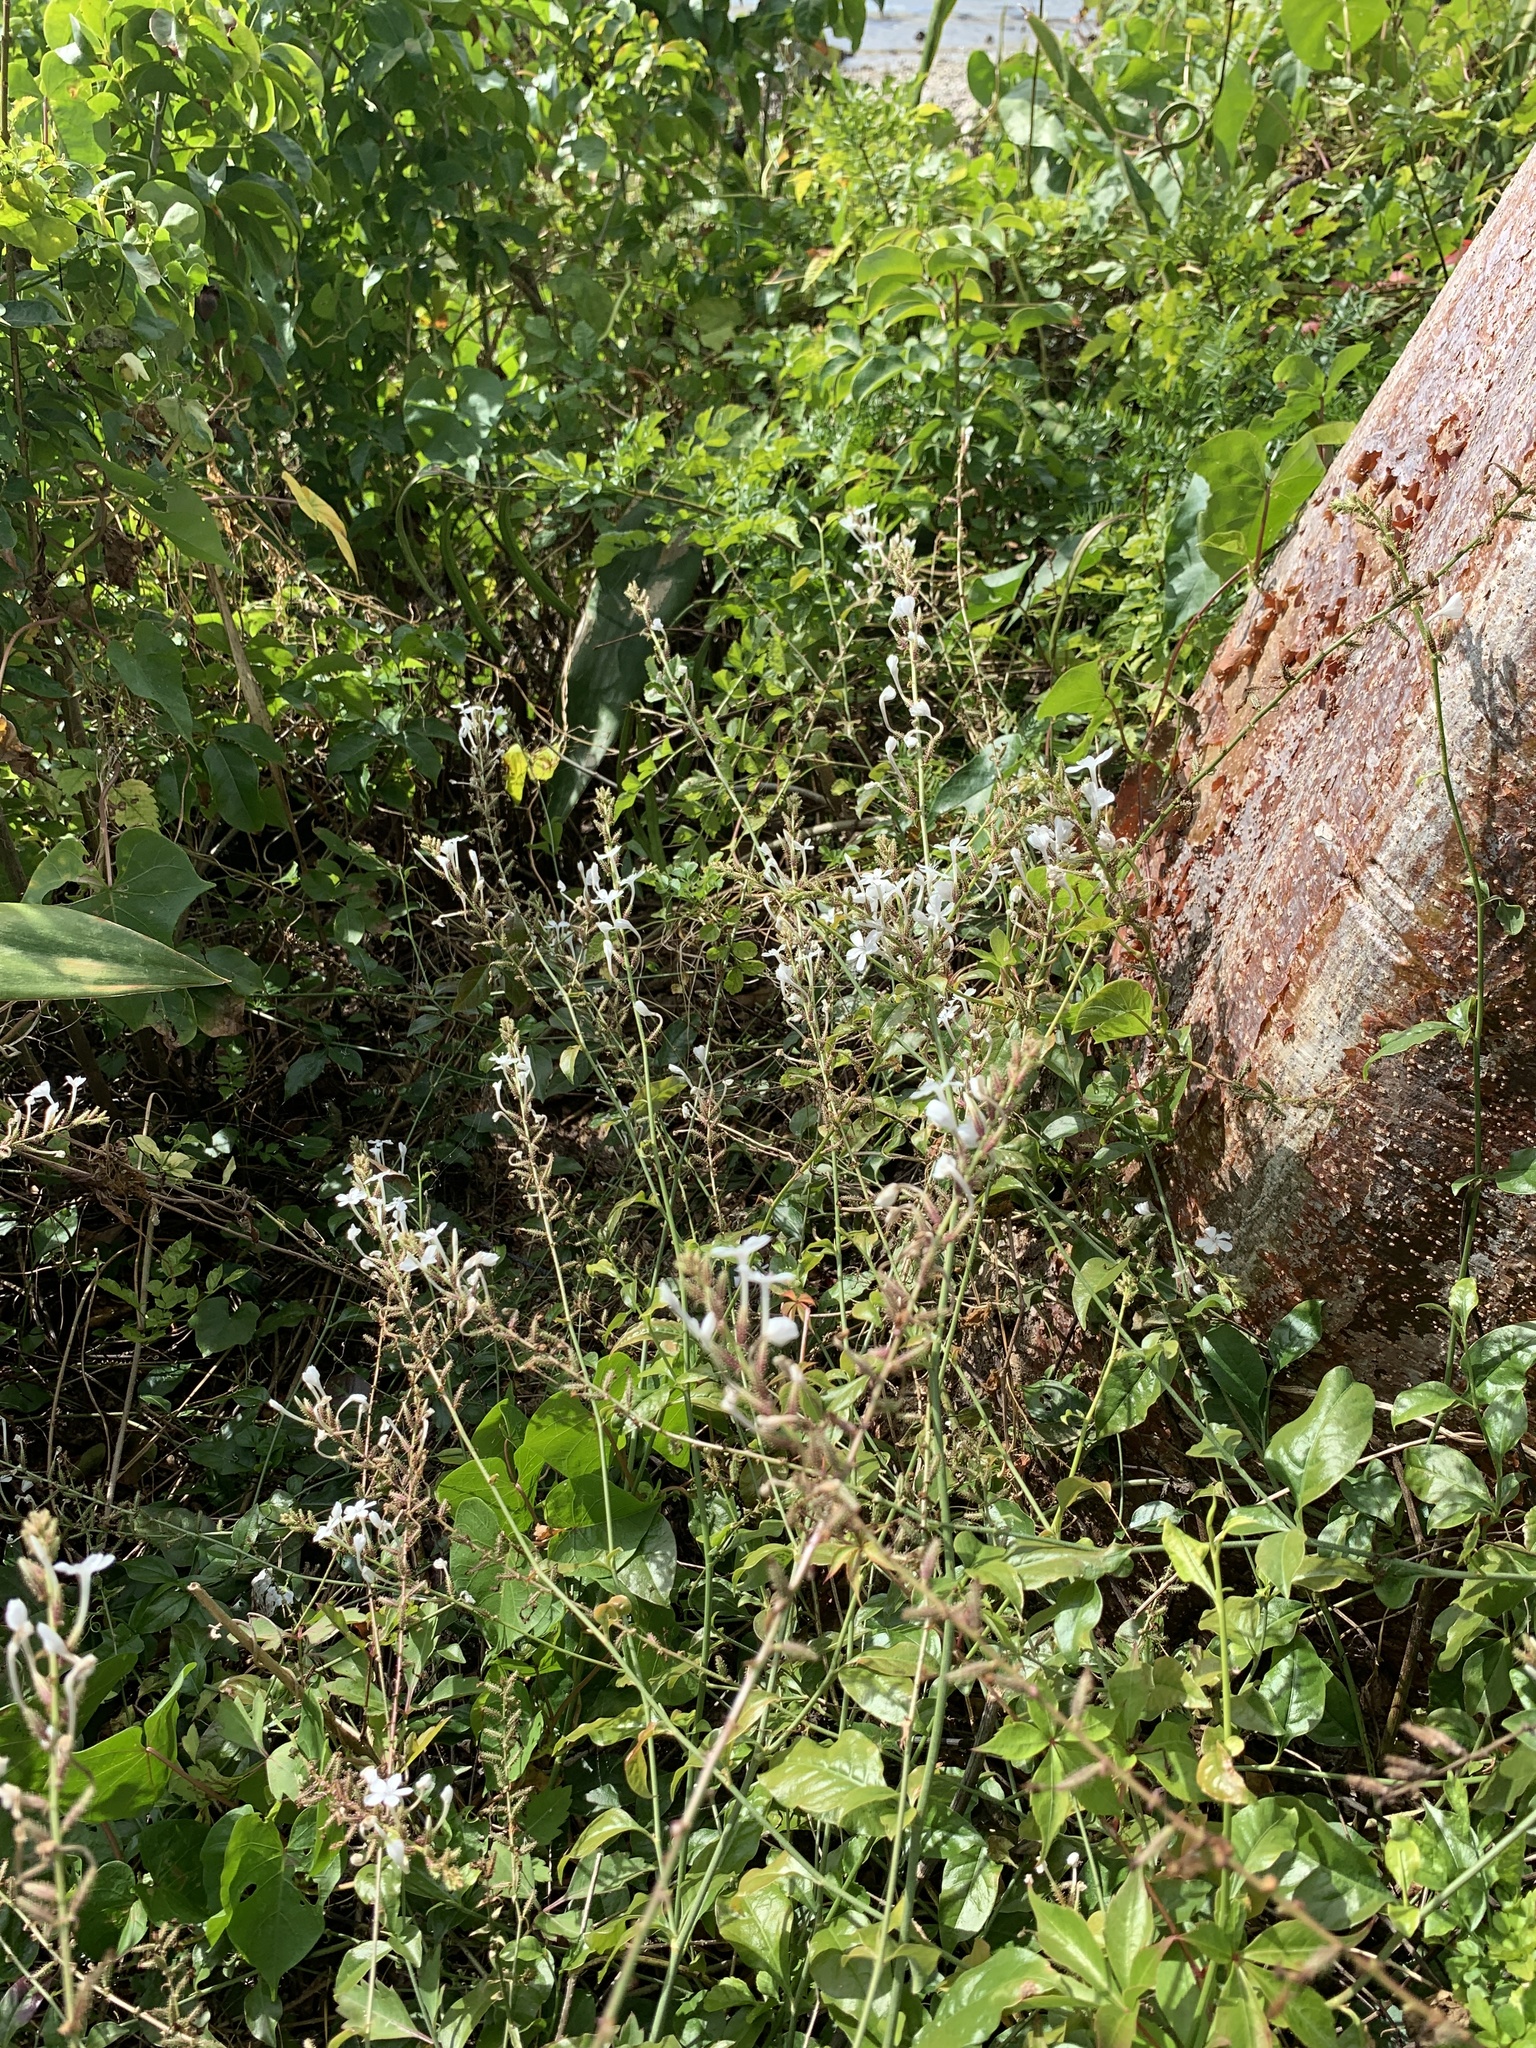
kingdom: Plantae
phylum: Tracheophyta
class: Magnoliopsida
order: Caryophyllales
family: Plumbaginaceae
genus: Plumbago
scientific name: Plumbago zeylanica
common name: Doctorbush
